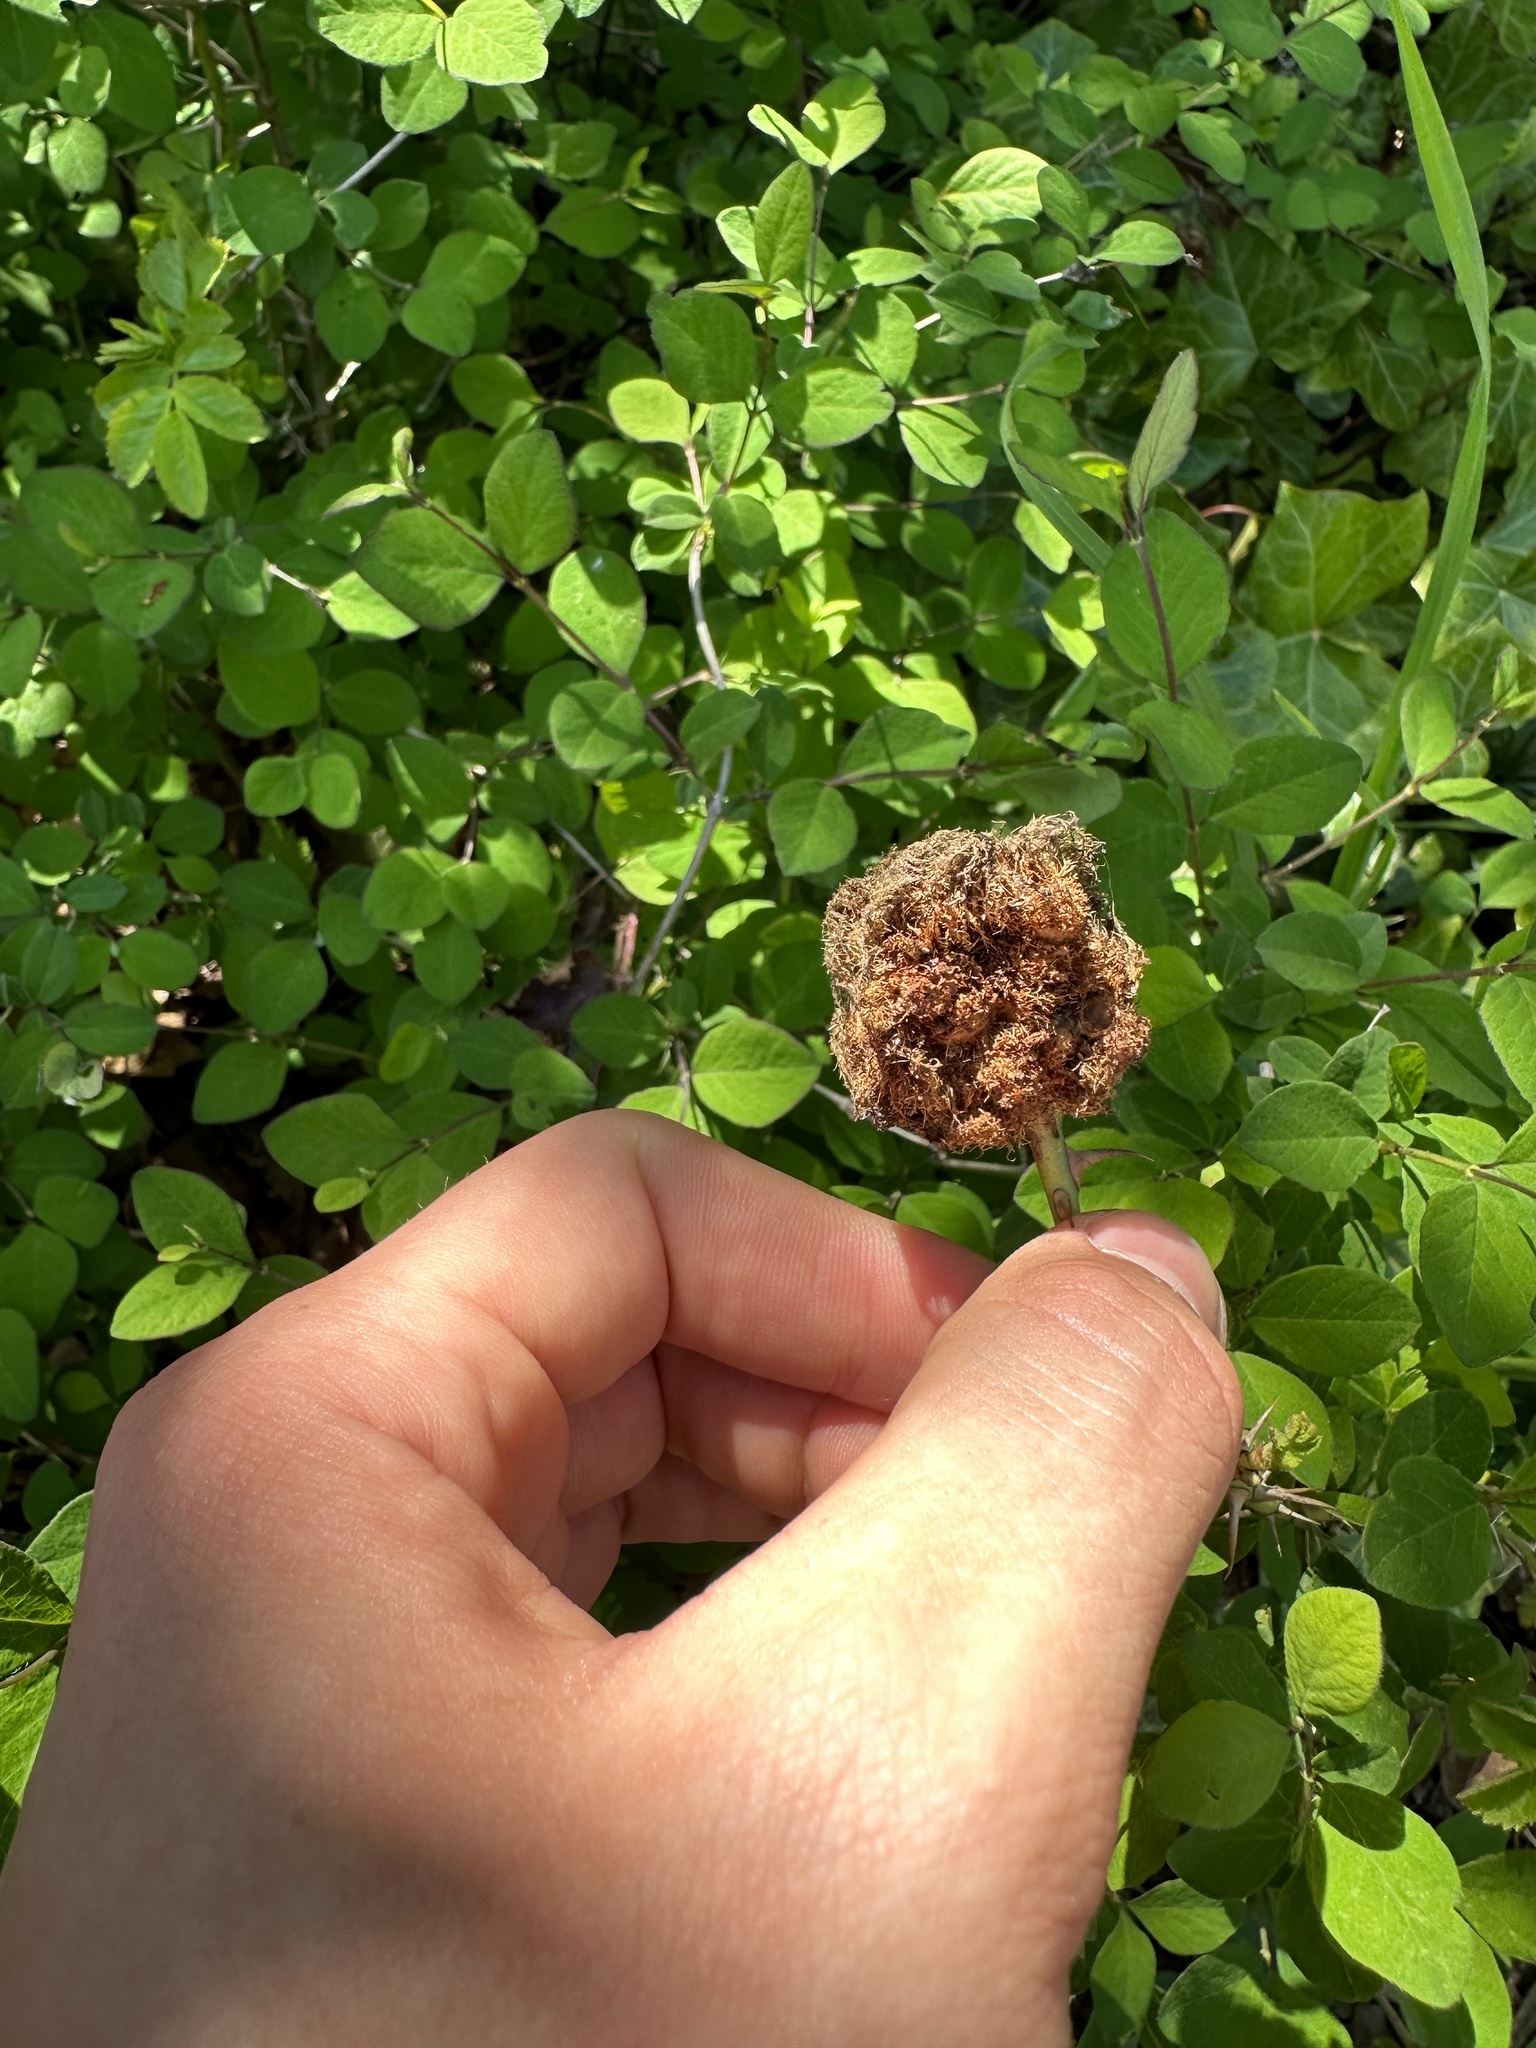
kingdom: Animalia
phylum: Arthropoda
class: Insecta
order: Hymenoptera
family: Cynipidae
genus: Diplolepis
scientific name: Diplolepis rosae
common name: Bedeguar gall
